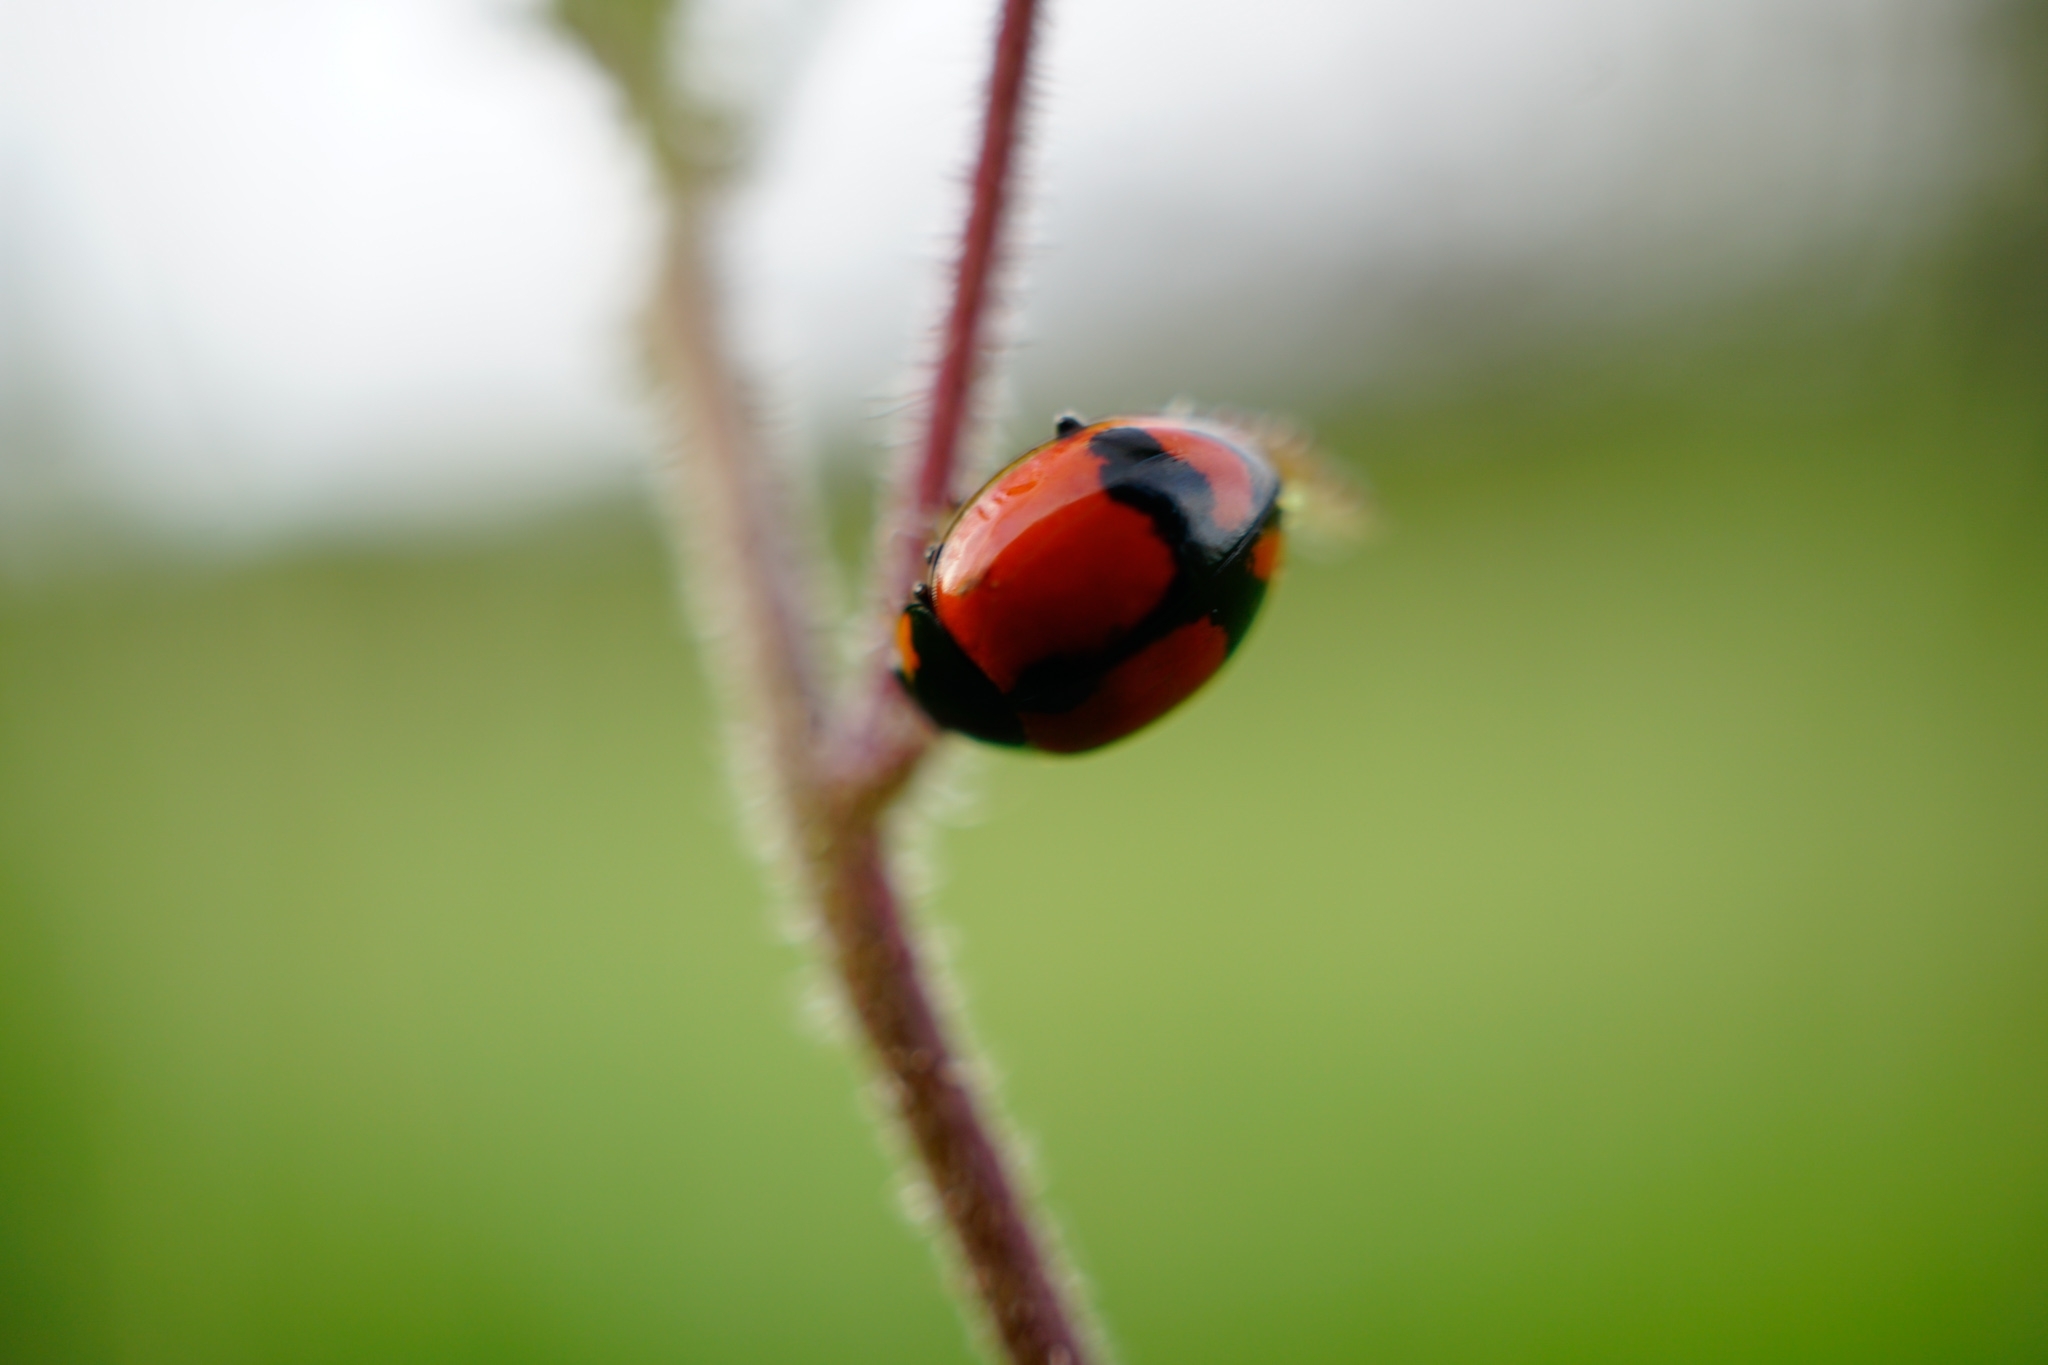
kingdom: Animalia
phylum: Arthropoda
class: Insecta
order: Coleoptera
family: Coccinellidae
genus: Coccinella
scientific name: Coccinella transversalis
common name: Transverse lady beetle
